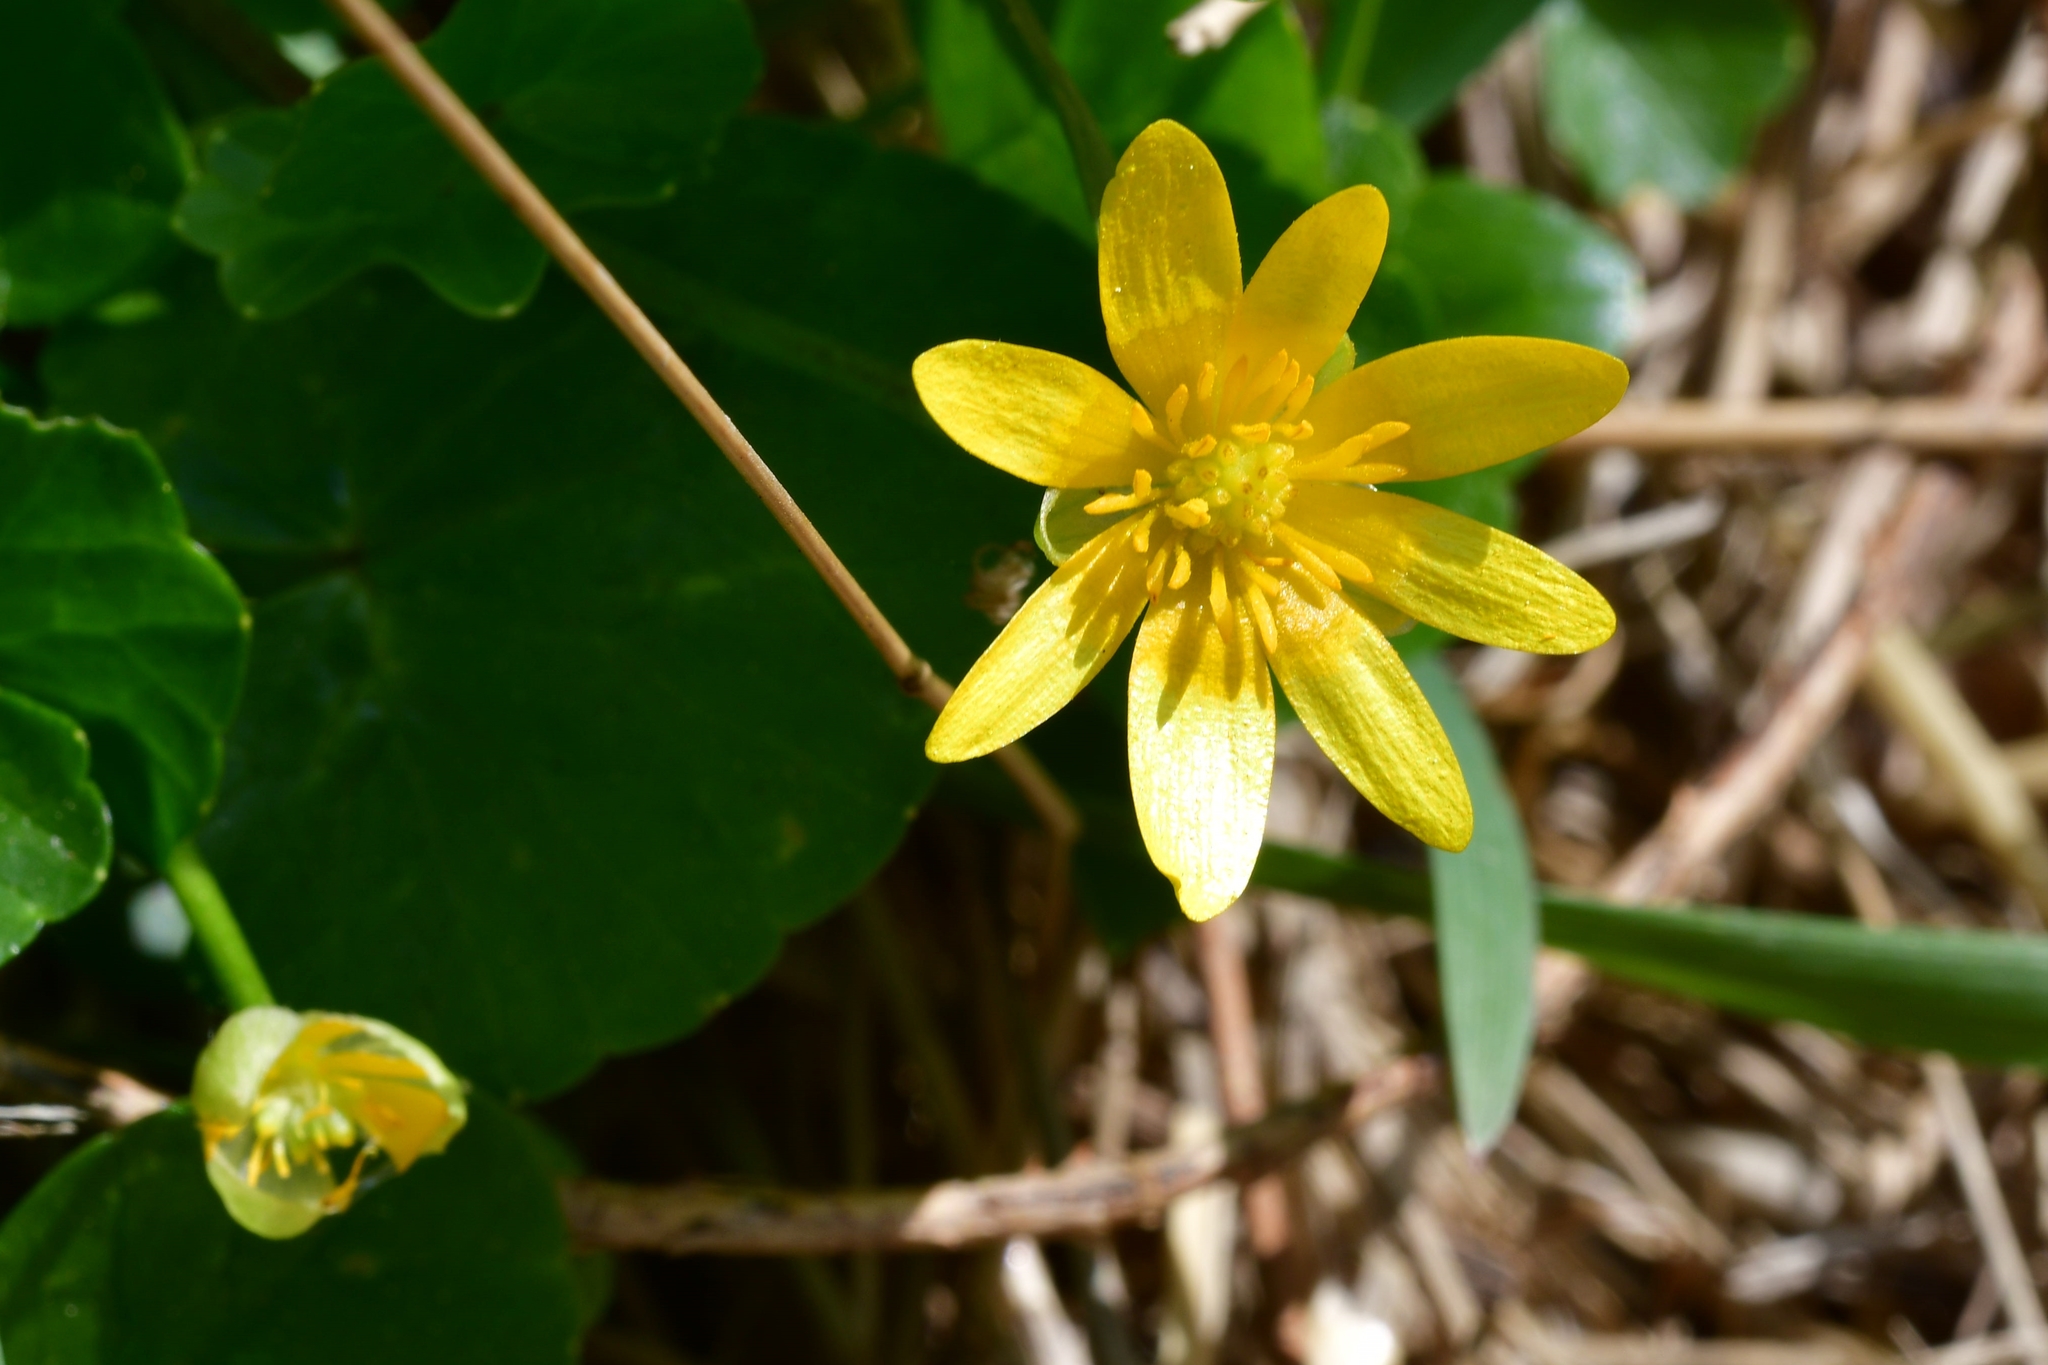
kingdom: Plantae
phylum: Tracheophyta
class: Magnoliopsida
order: Ranunculales
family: Ranunculaceae
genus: Ficaria
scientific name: Ficaria verna
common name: Lesser celandine
